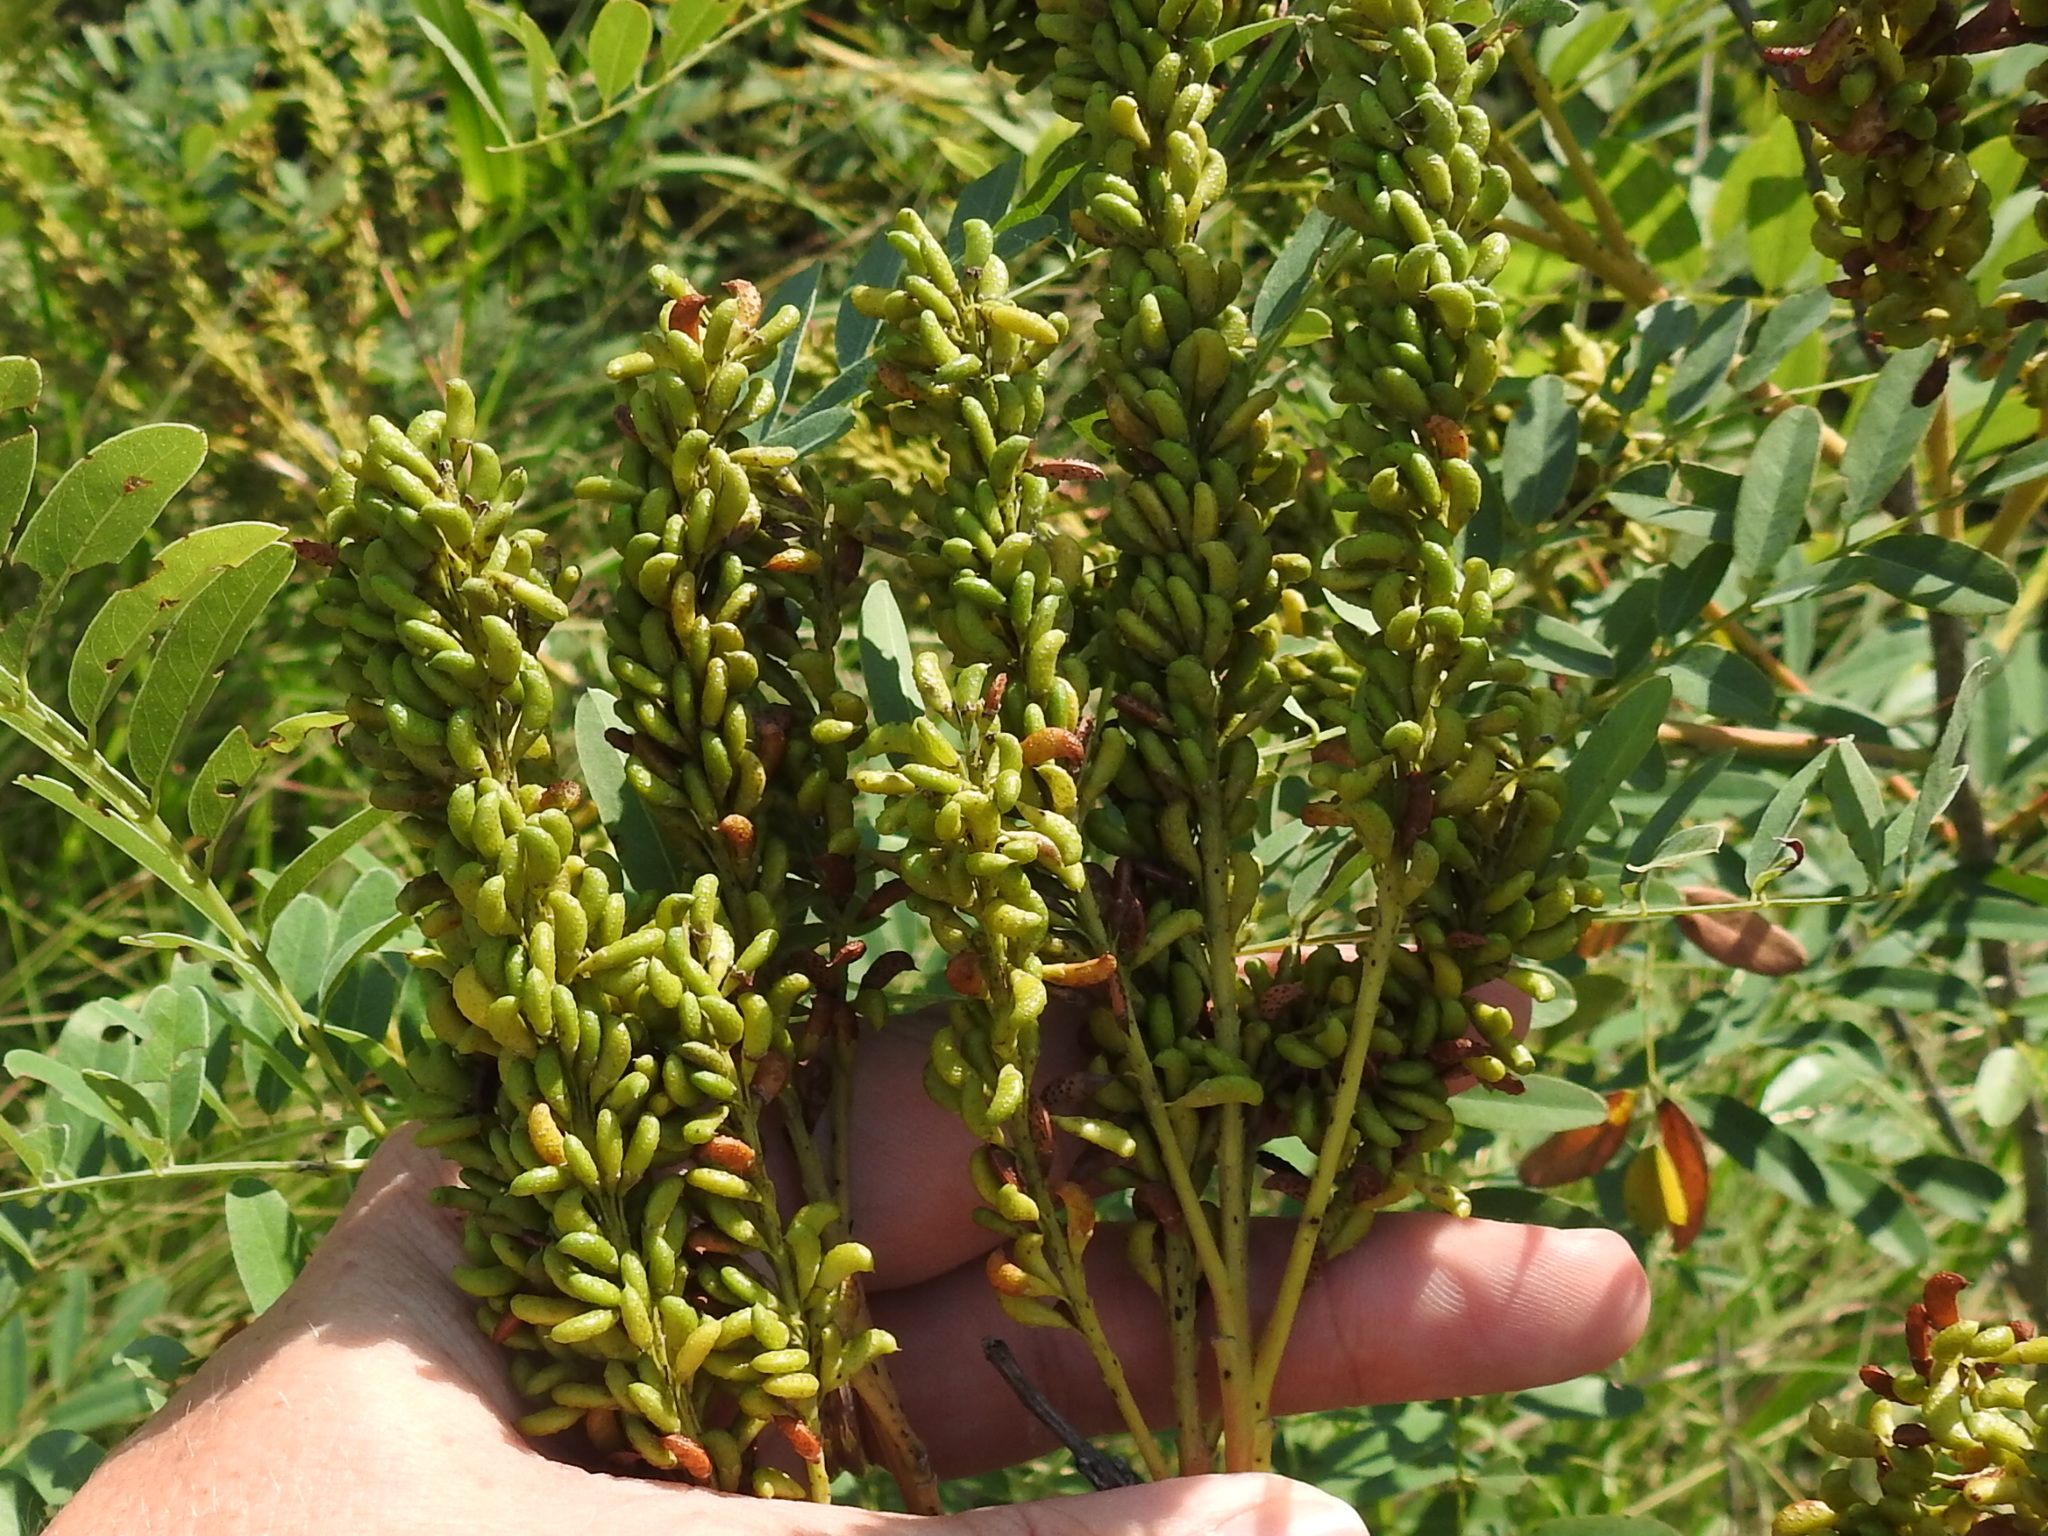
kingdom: Plantae
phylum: Tracheophyta
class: Magnoliopsida
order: Fabales
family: Fabaceae
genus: Amorpha
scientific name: Amorpha fruticosa
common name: False indigo
